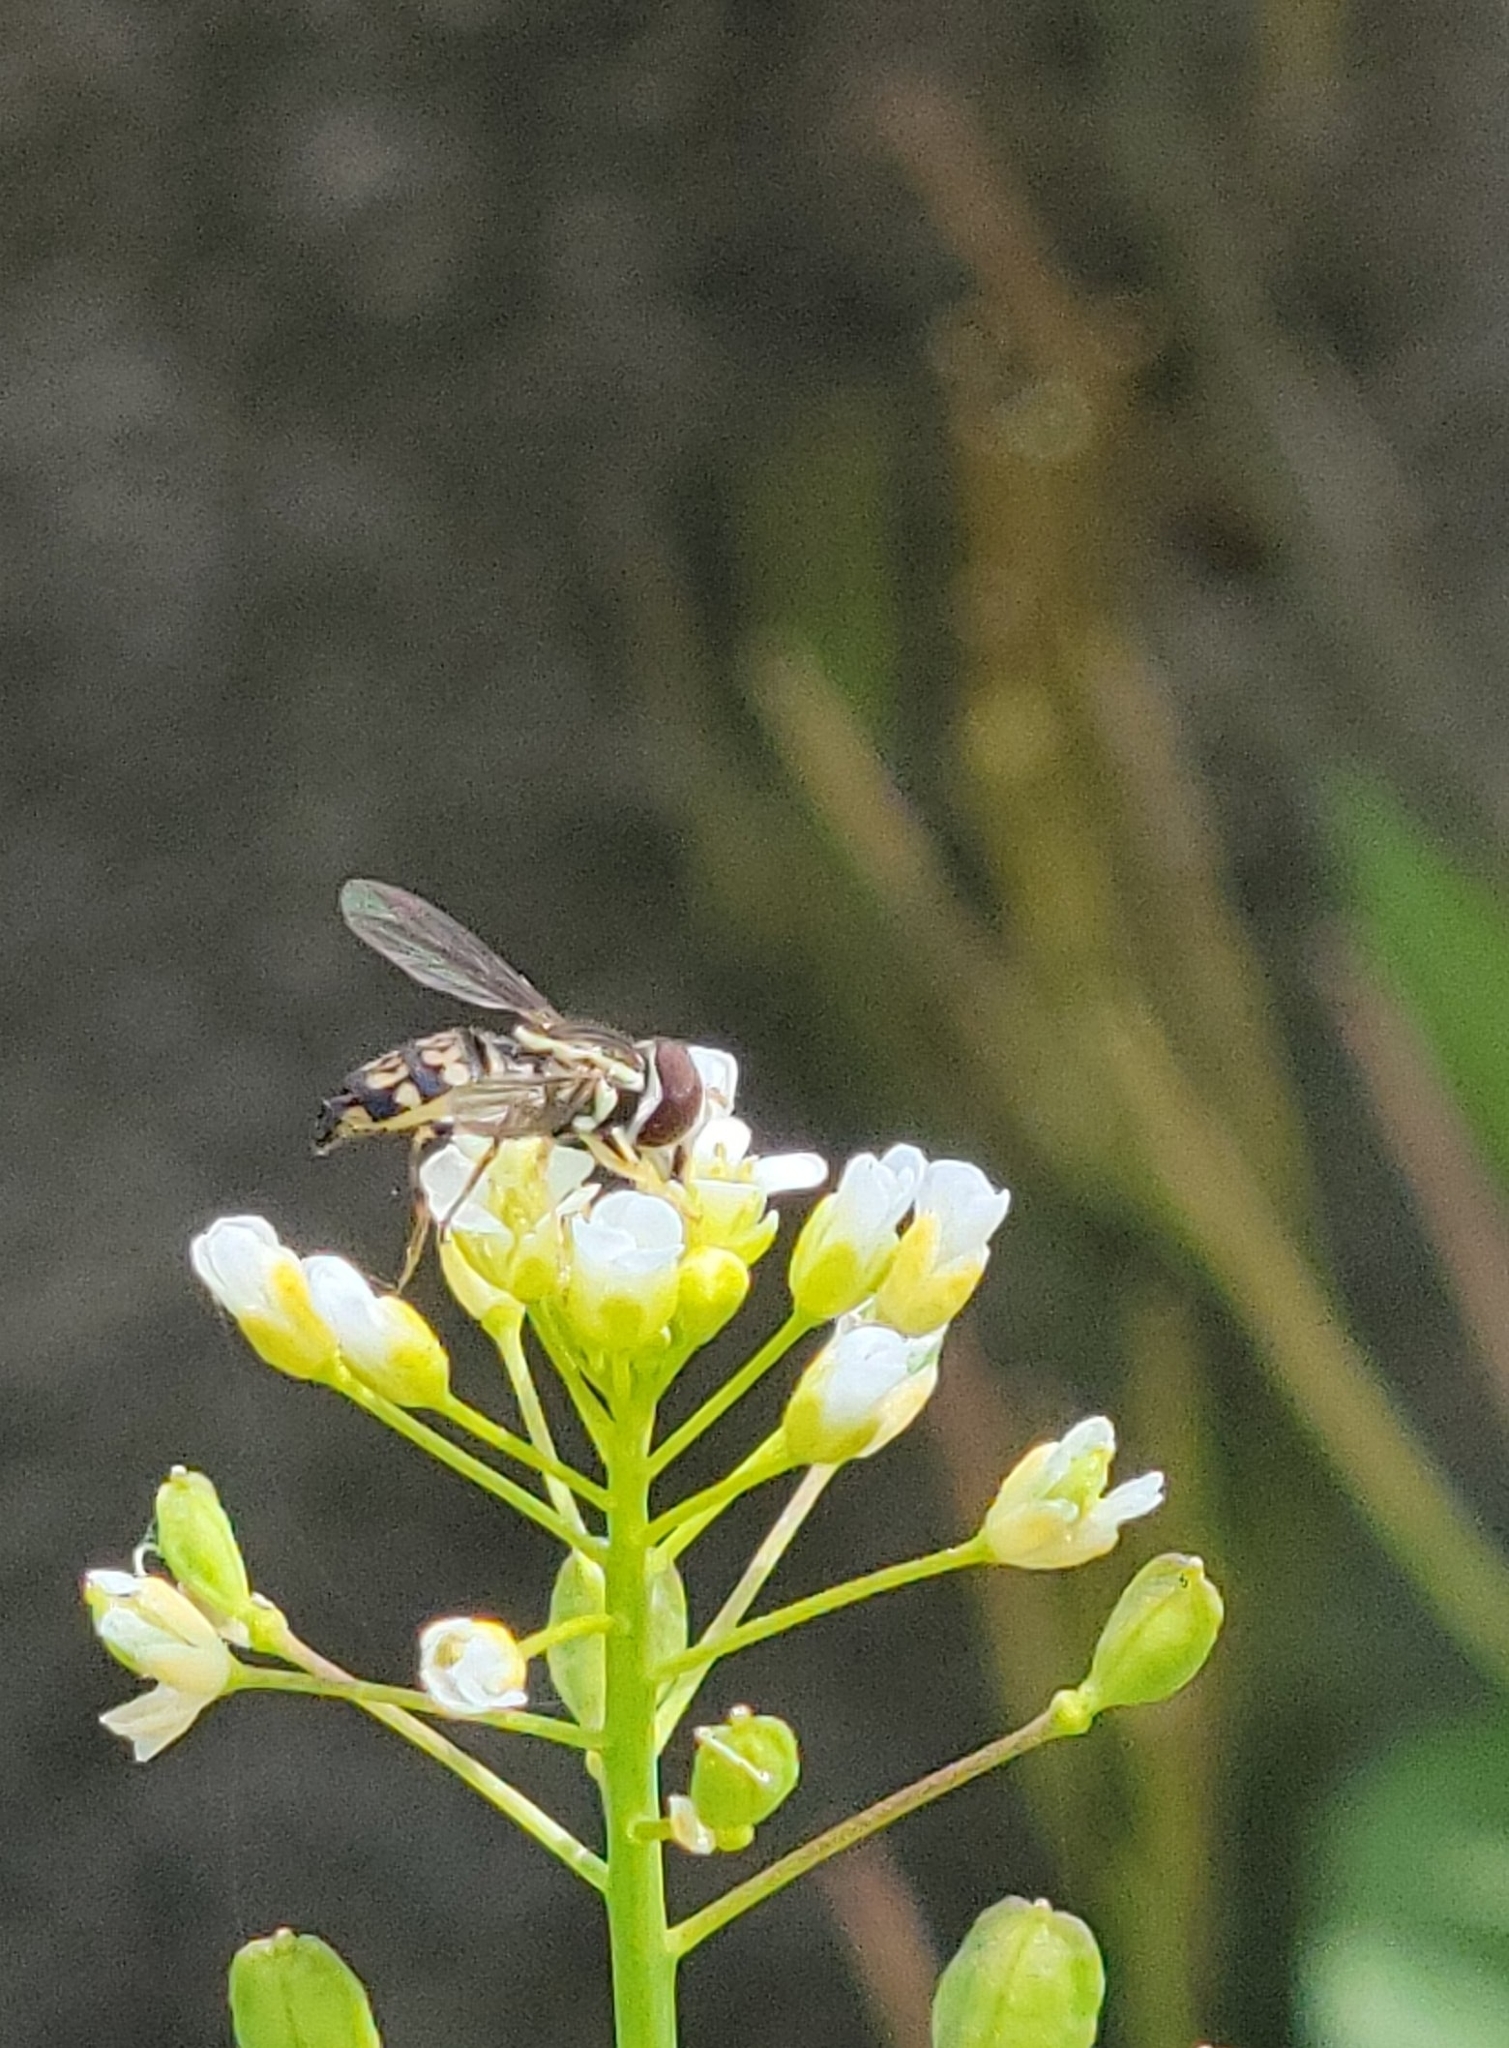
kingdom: Animalia
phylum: Arthropoda
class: Insecta
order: Diptera
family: Syrphidae
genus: Toxomerus
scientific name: Toxomerus geminatus
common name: Eastern calligrapher
